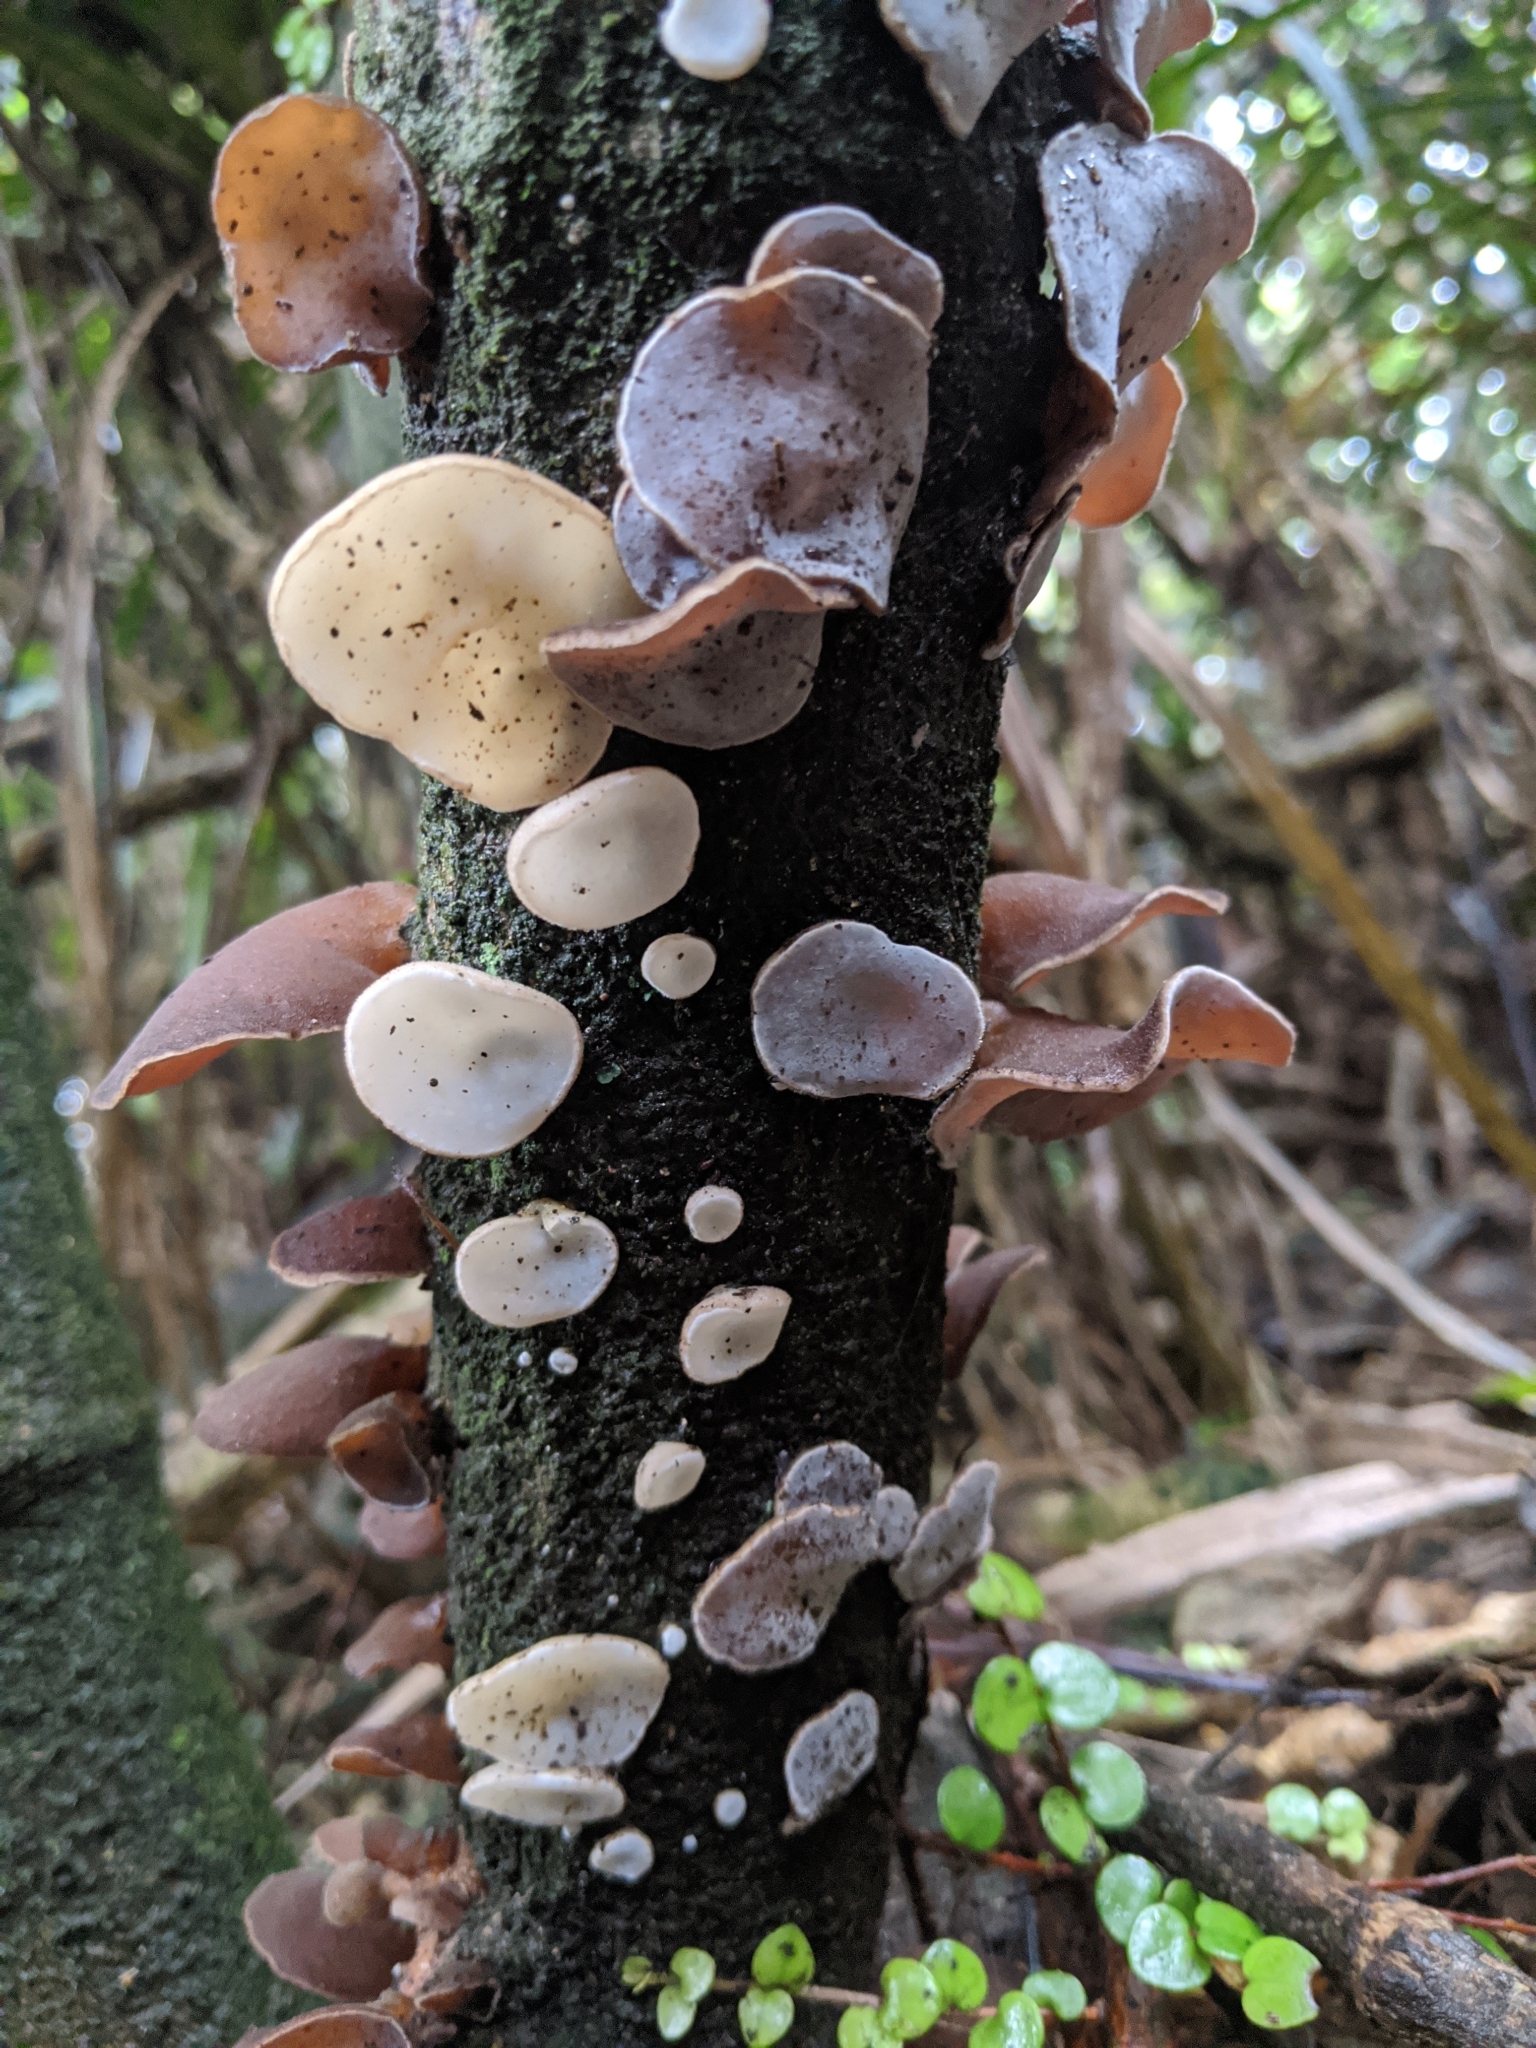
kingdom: Fungi
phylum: Basidiomycota
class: Agaricomycetes
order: Auriculariales
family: Auriculariaceae
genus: Auricularia
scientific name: Auricularia cornea
